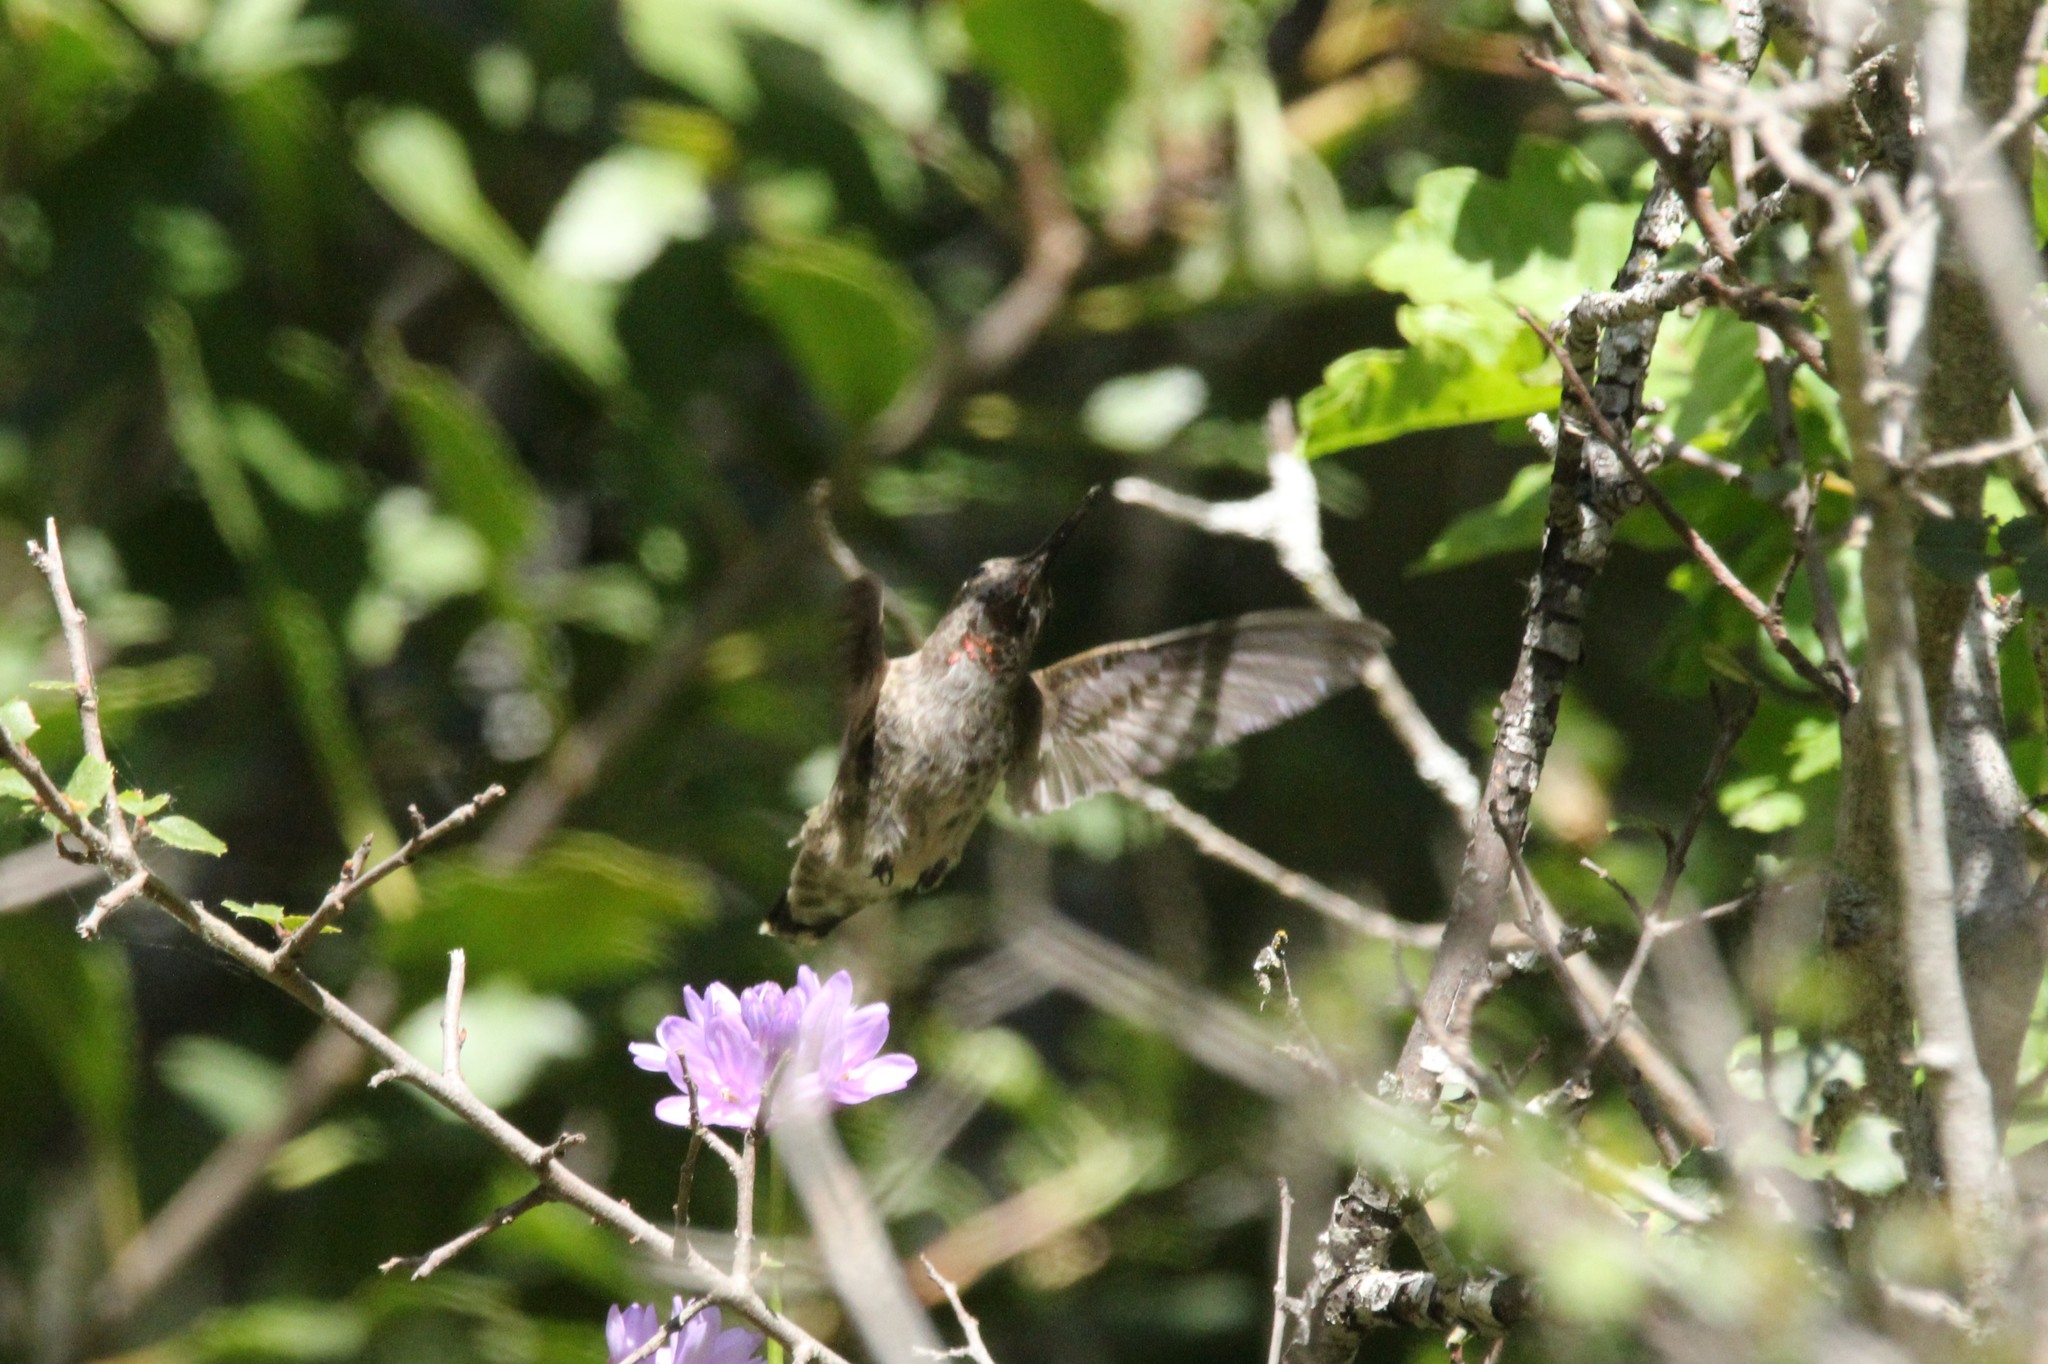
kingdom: Animalia
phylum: Chordata
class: Aves
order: Apodiformes
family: Trochilidae
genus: Calypte
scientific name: Calypte anna
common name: Anna's hummingbird
